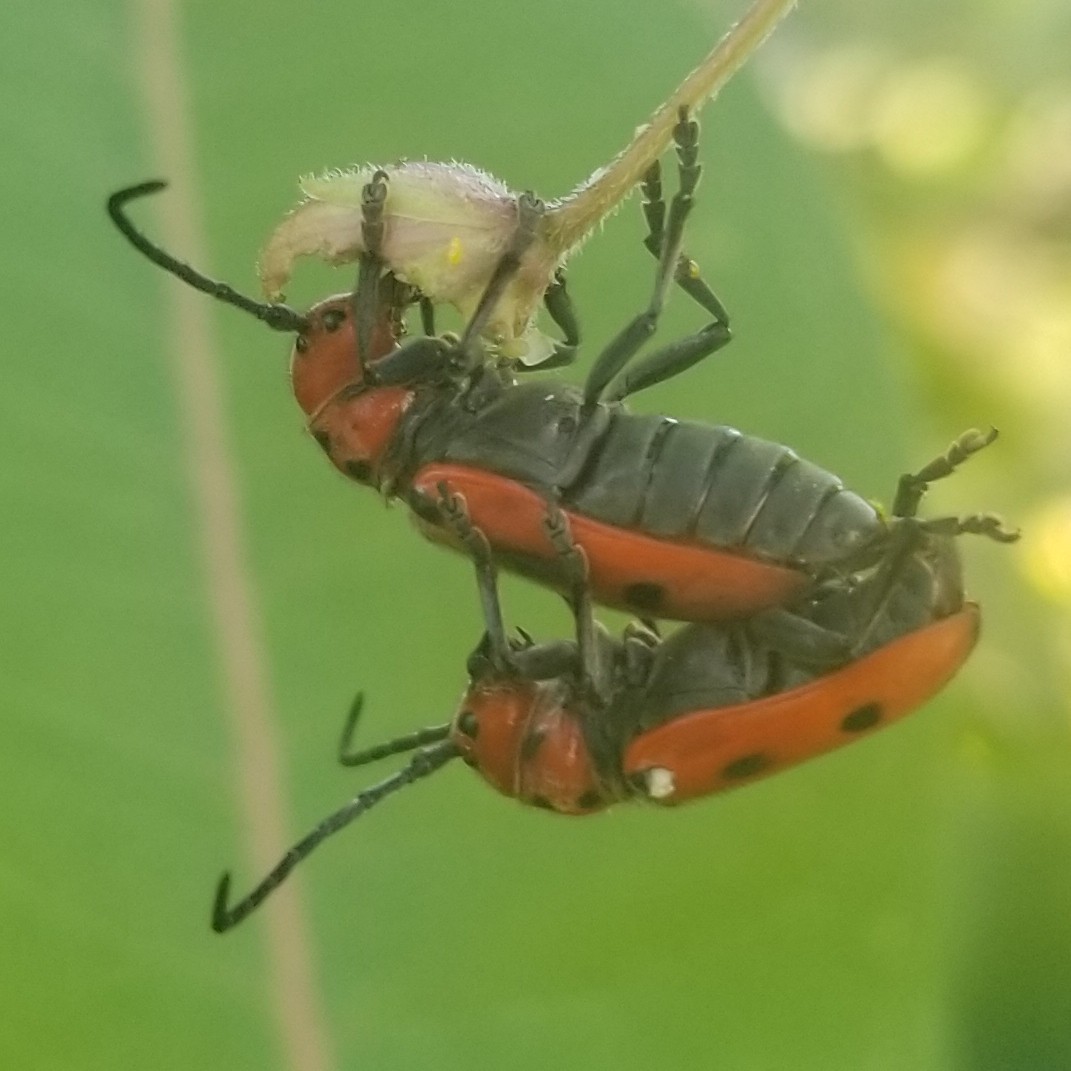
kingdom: Animalia
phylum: Arthropoda
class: Insecta
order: Coleoptera
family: Cerambycidae
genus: Tetraopes
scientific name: Tetraopes tetrophthalmus
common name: Red milkweed beetle
